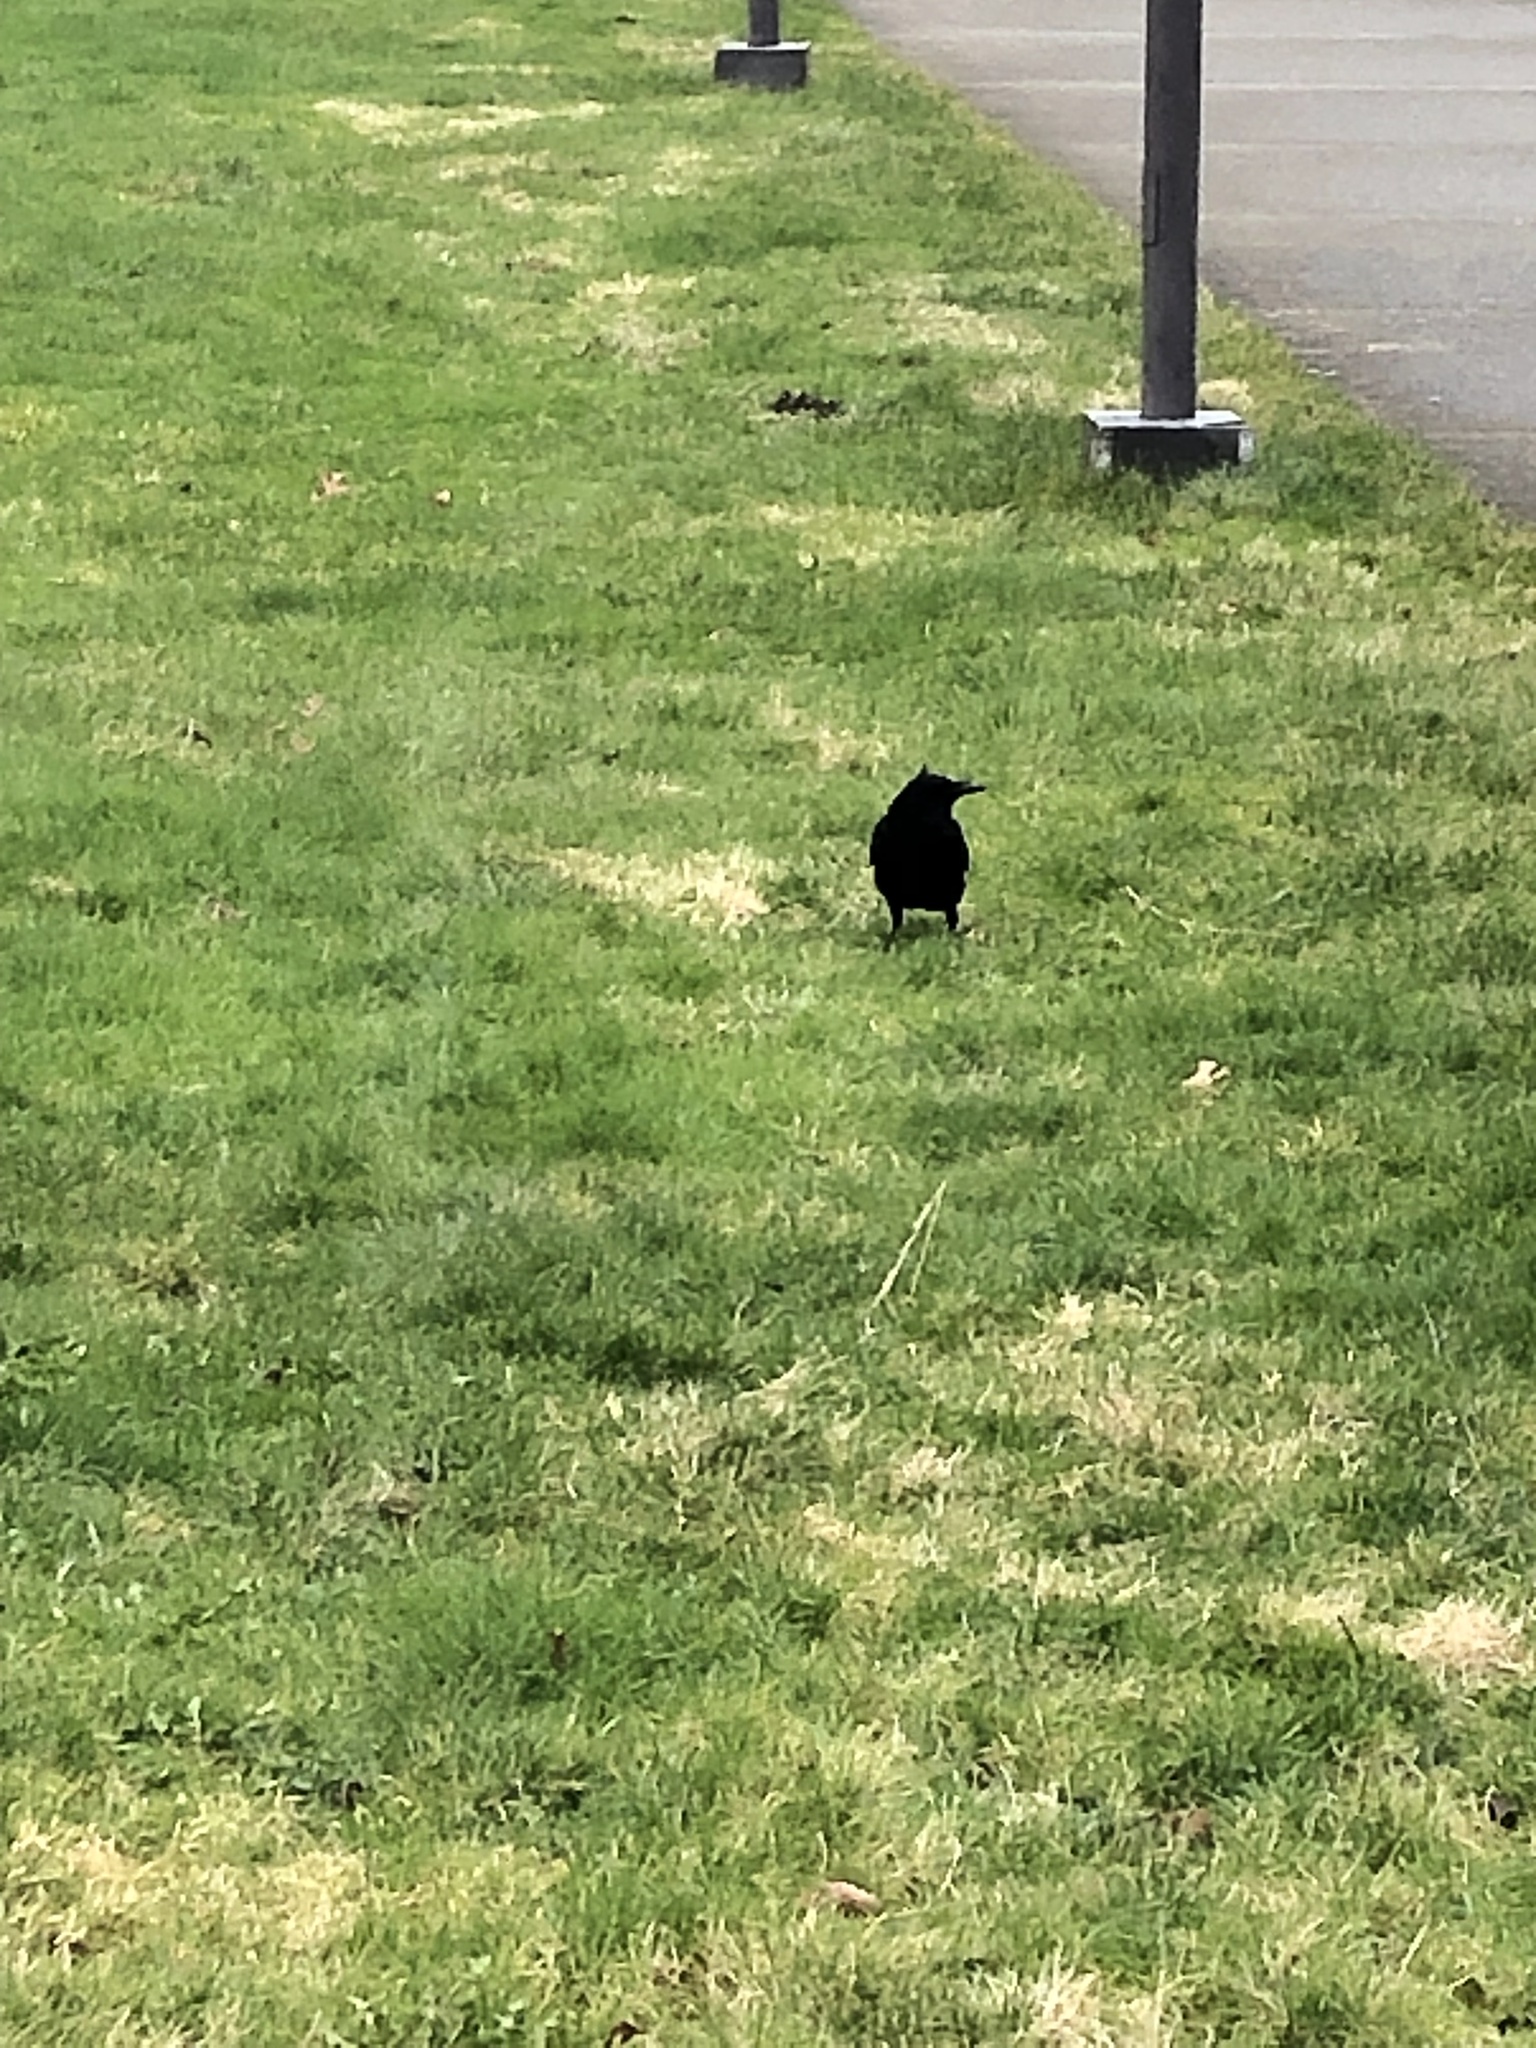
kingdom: Animalia
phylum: Chordata
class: Aves
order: Passeriformes
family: Corvidae
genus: Corvus
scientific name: Corvus brachyrhynchos
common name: American crow
